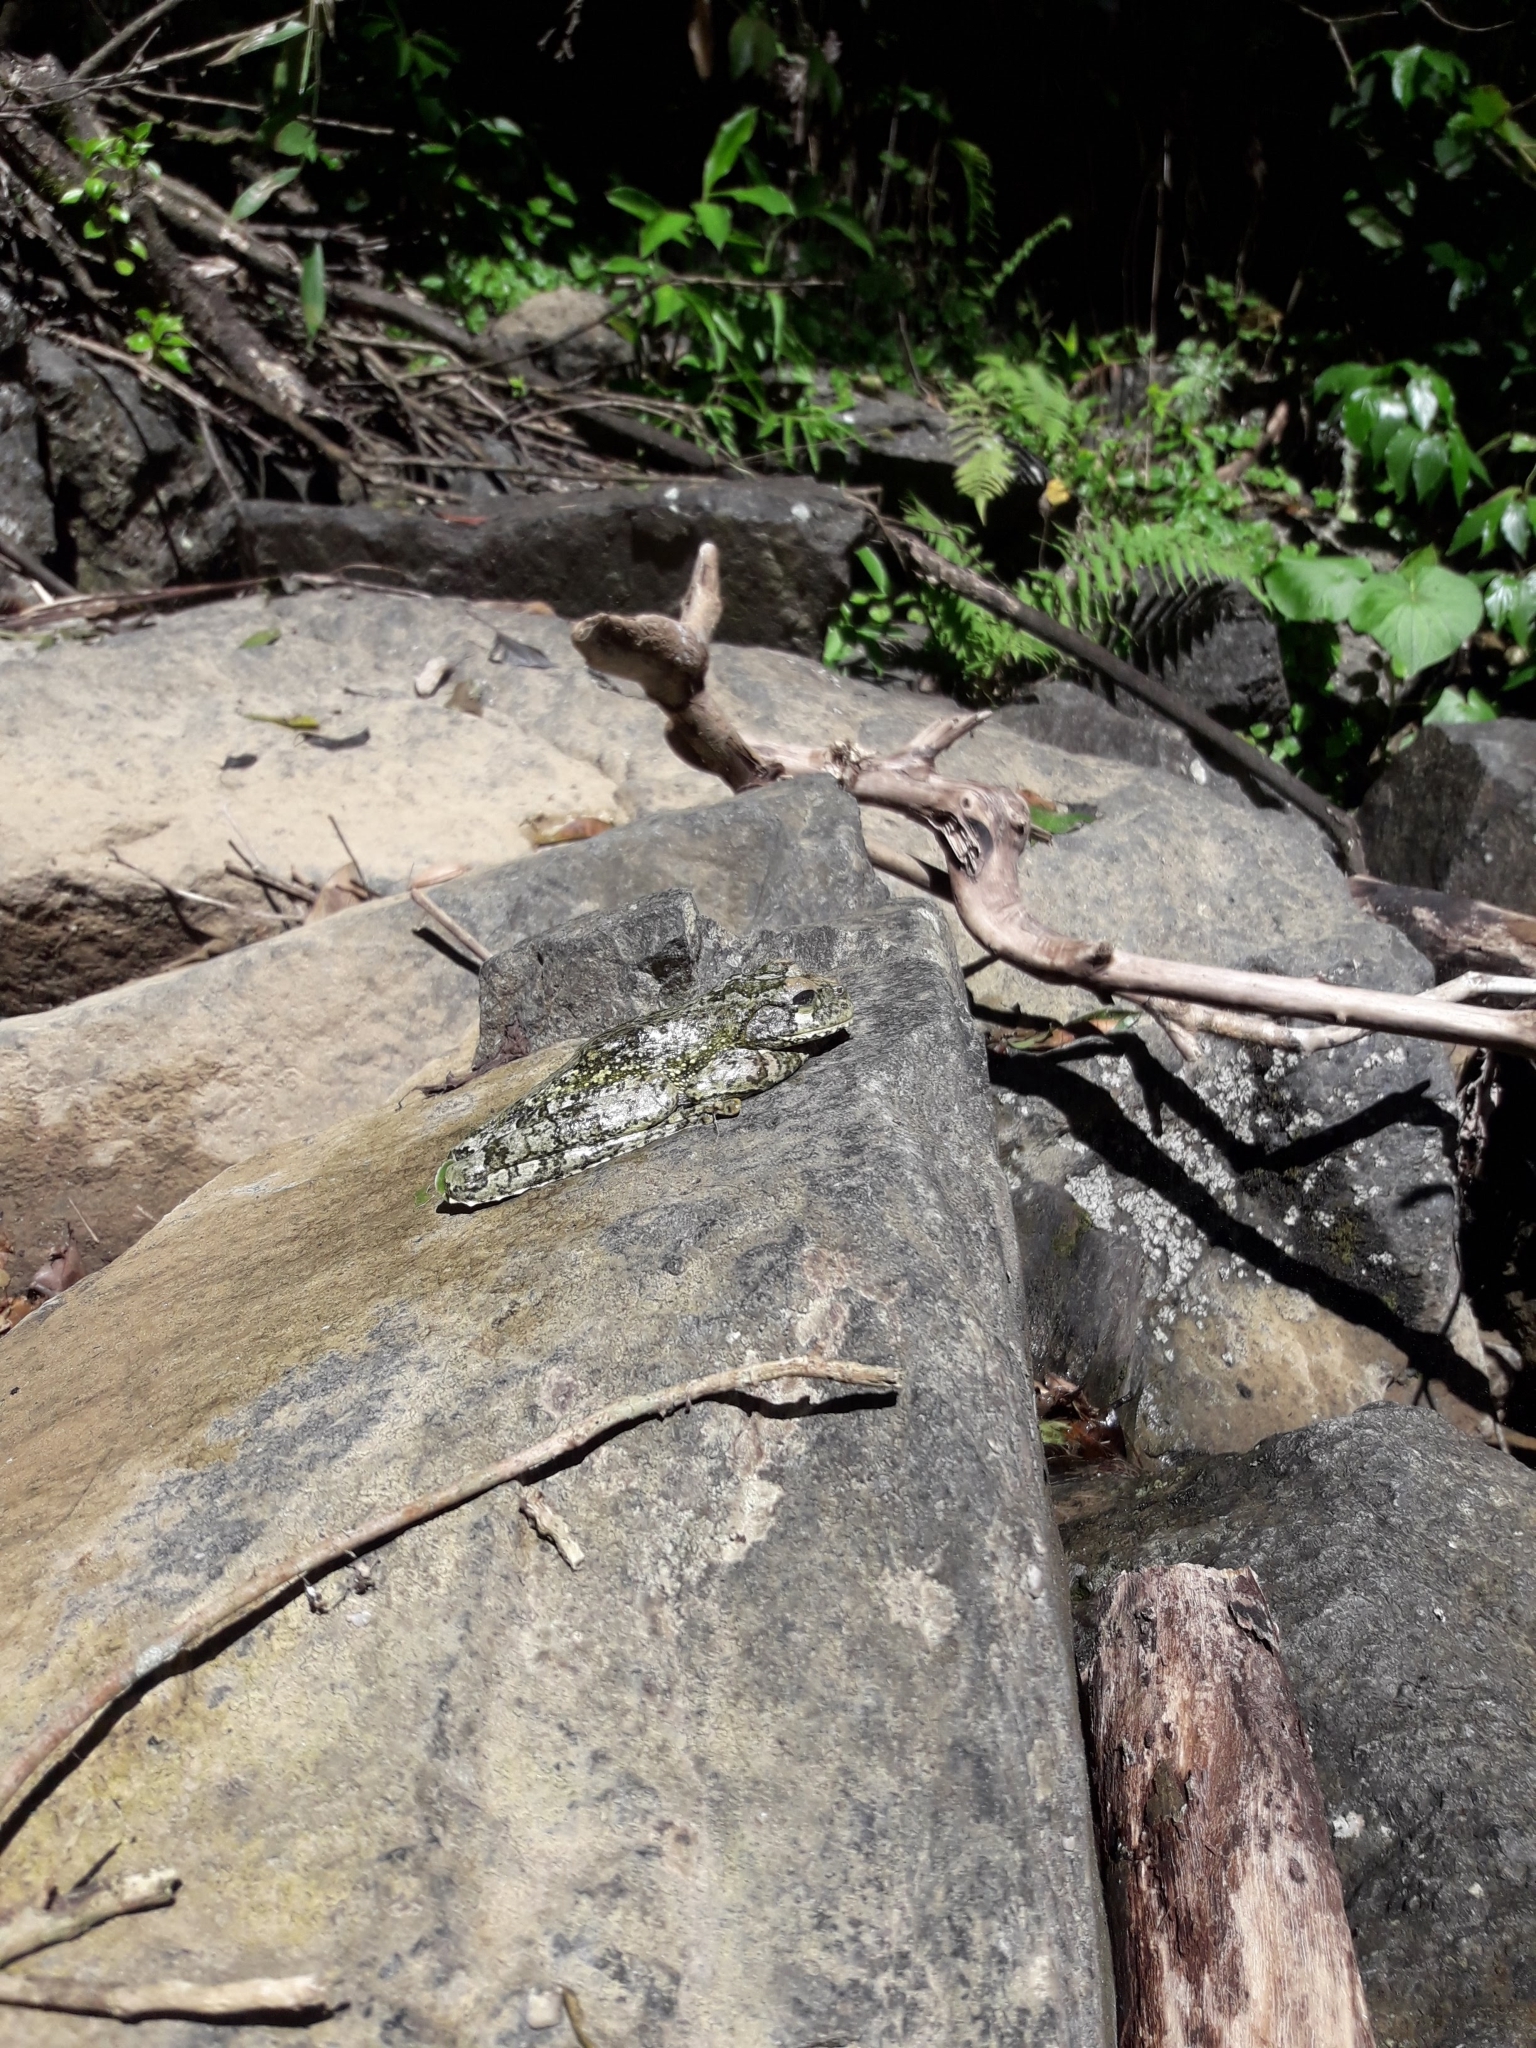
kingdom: Animalia
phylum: Chordata
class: Amphibia
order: Anura
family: Hylidae
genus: Osteopilus
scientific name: Osteopilus vastus
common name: Hispaniolan giant treefrog
